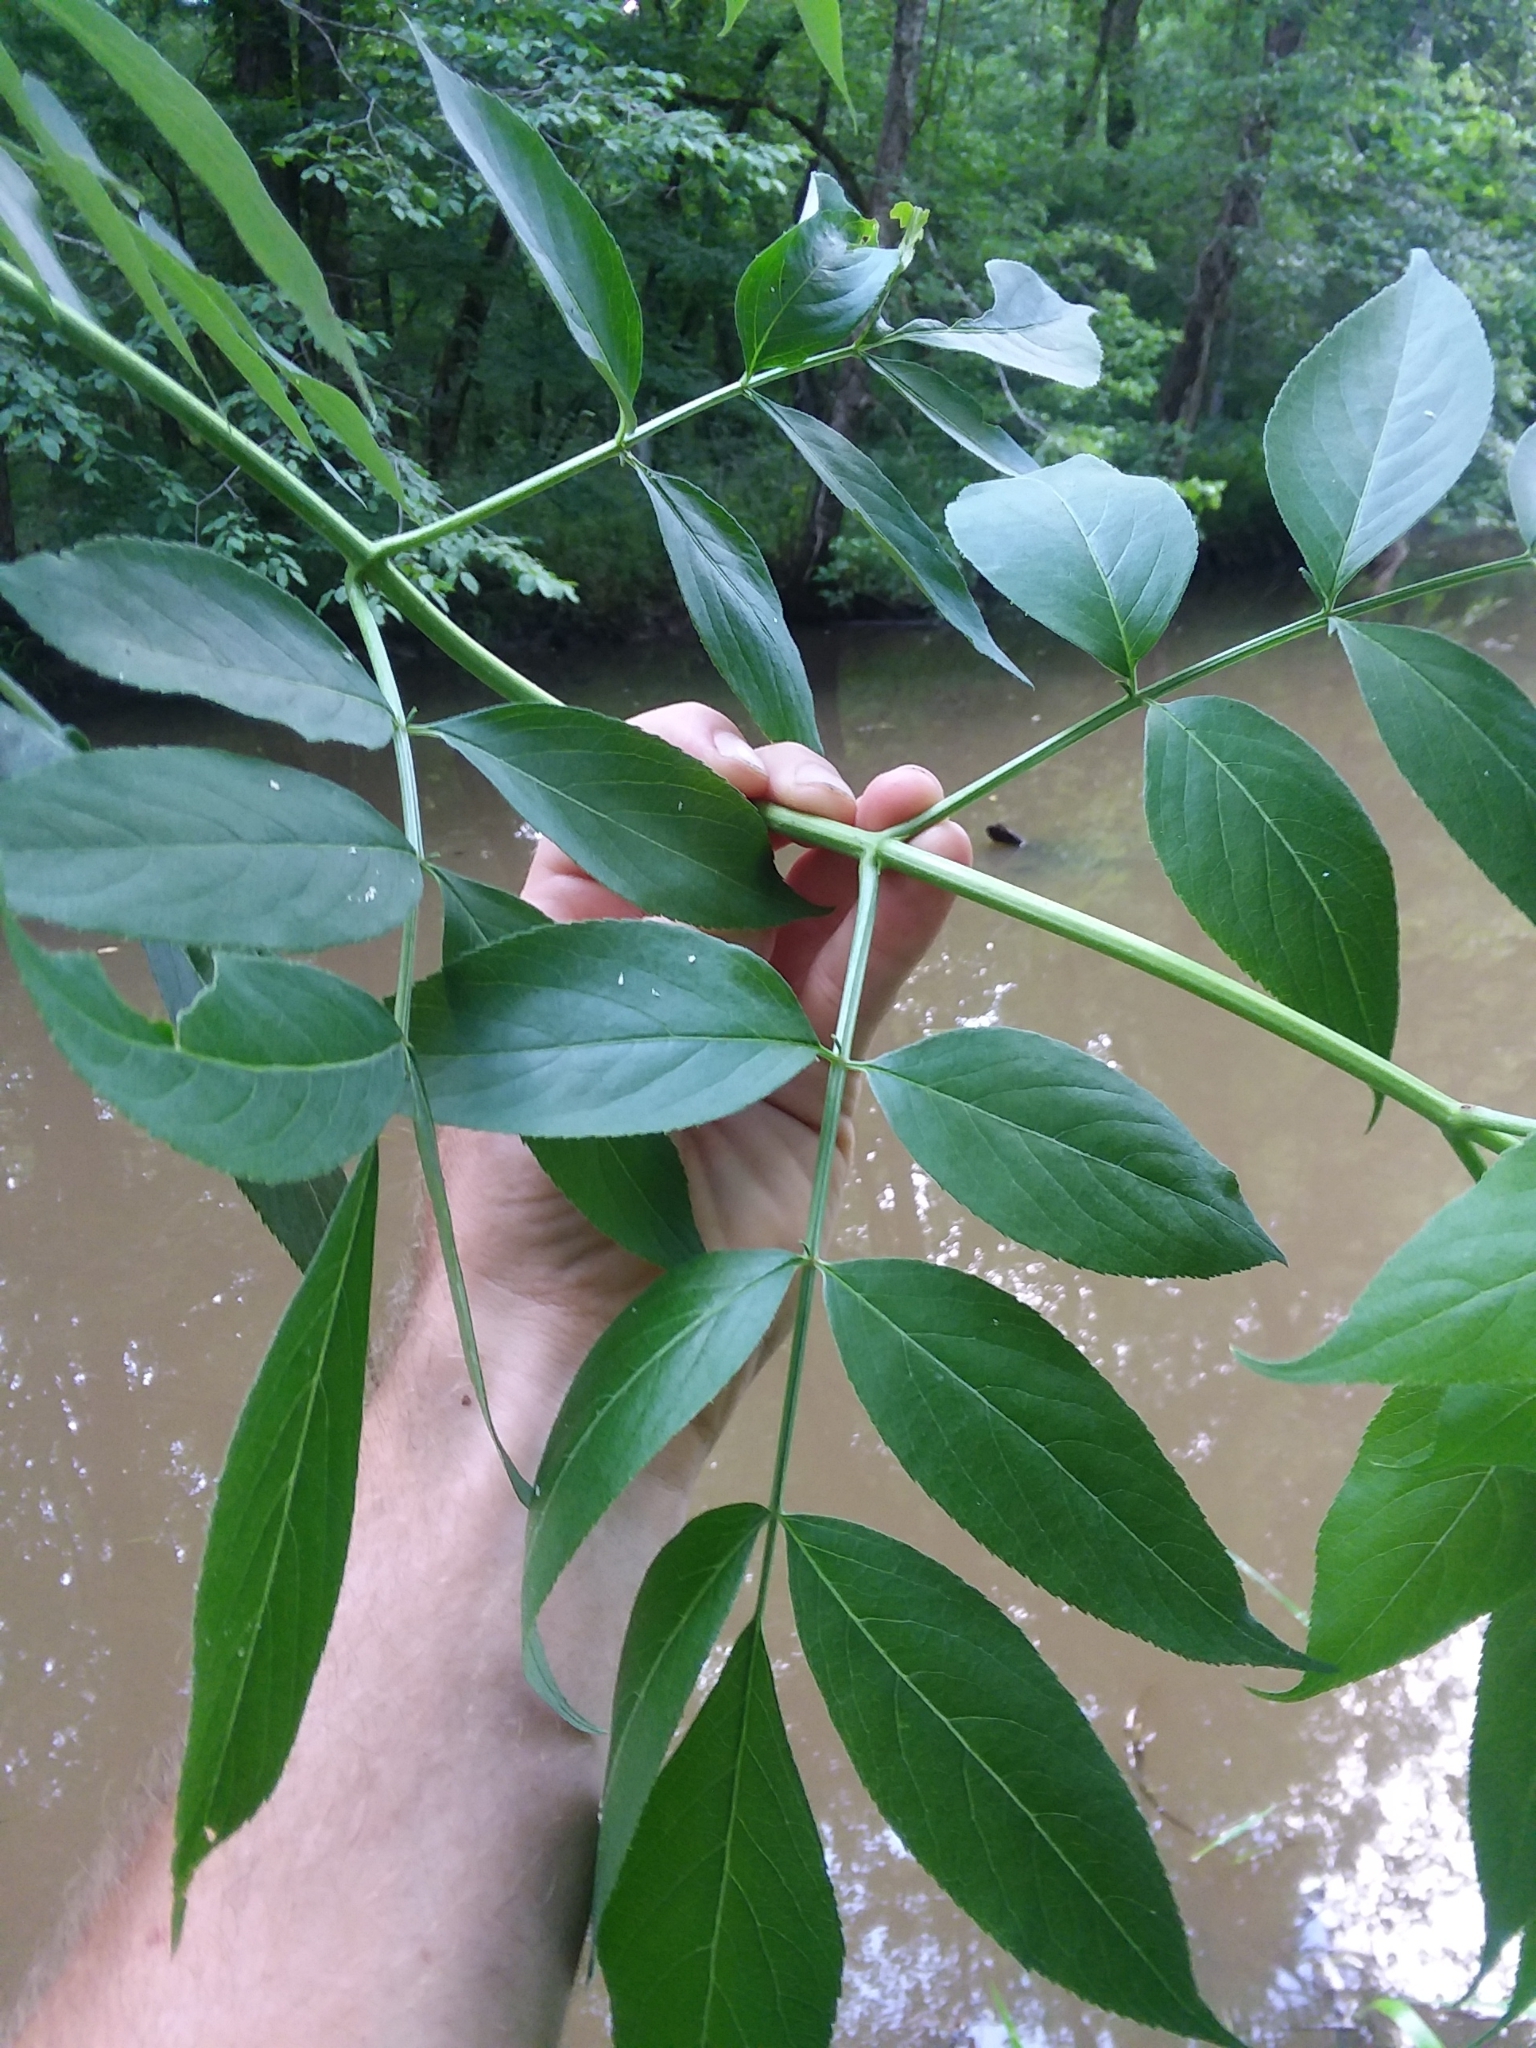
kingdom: Plantae
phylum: Tracheophyta
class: Magnoliopsida
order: Dipsacales
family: Viburnaceae
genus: Sambucus
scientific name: Sambucus canadensis
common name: American elder
